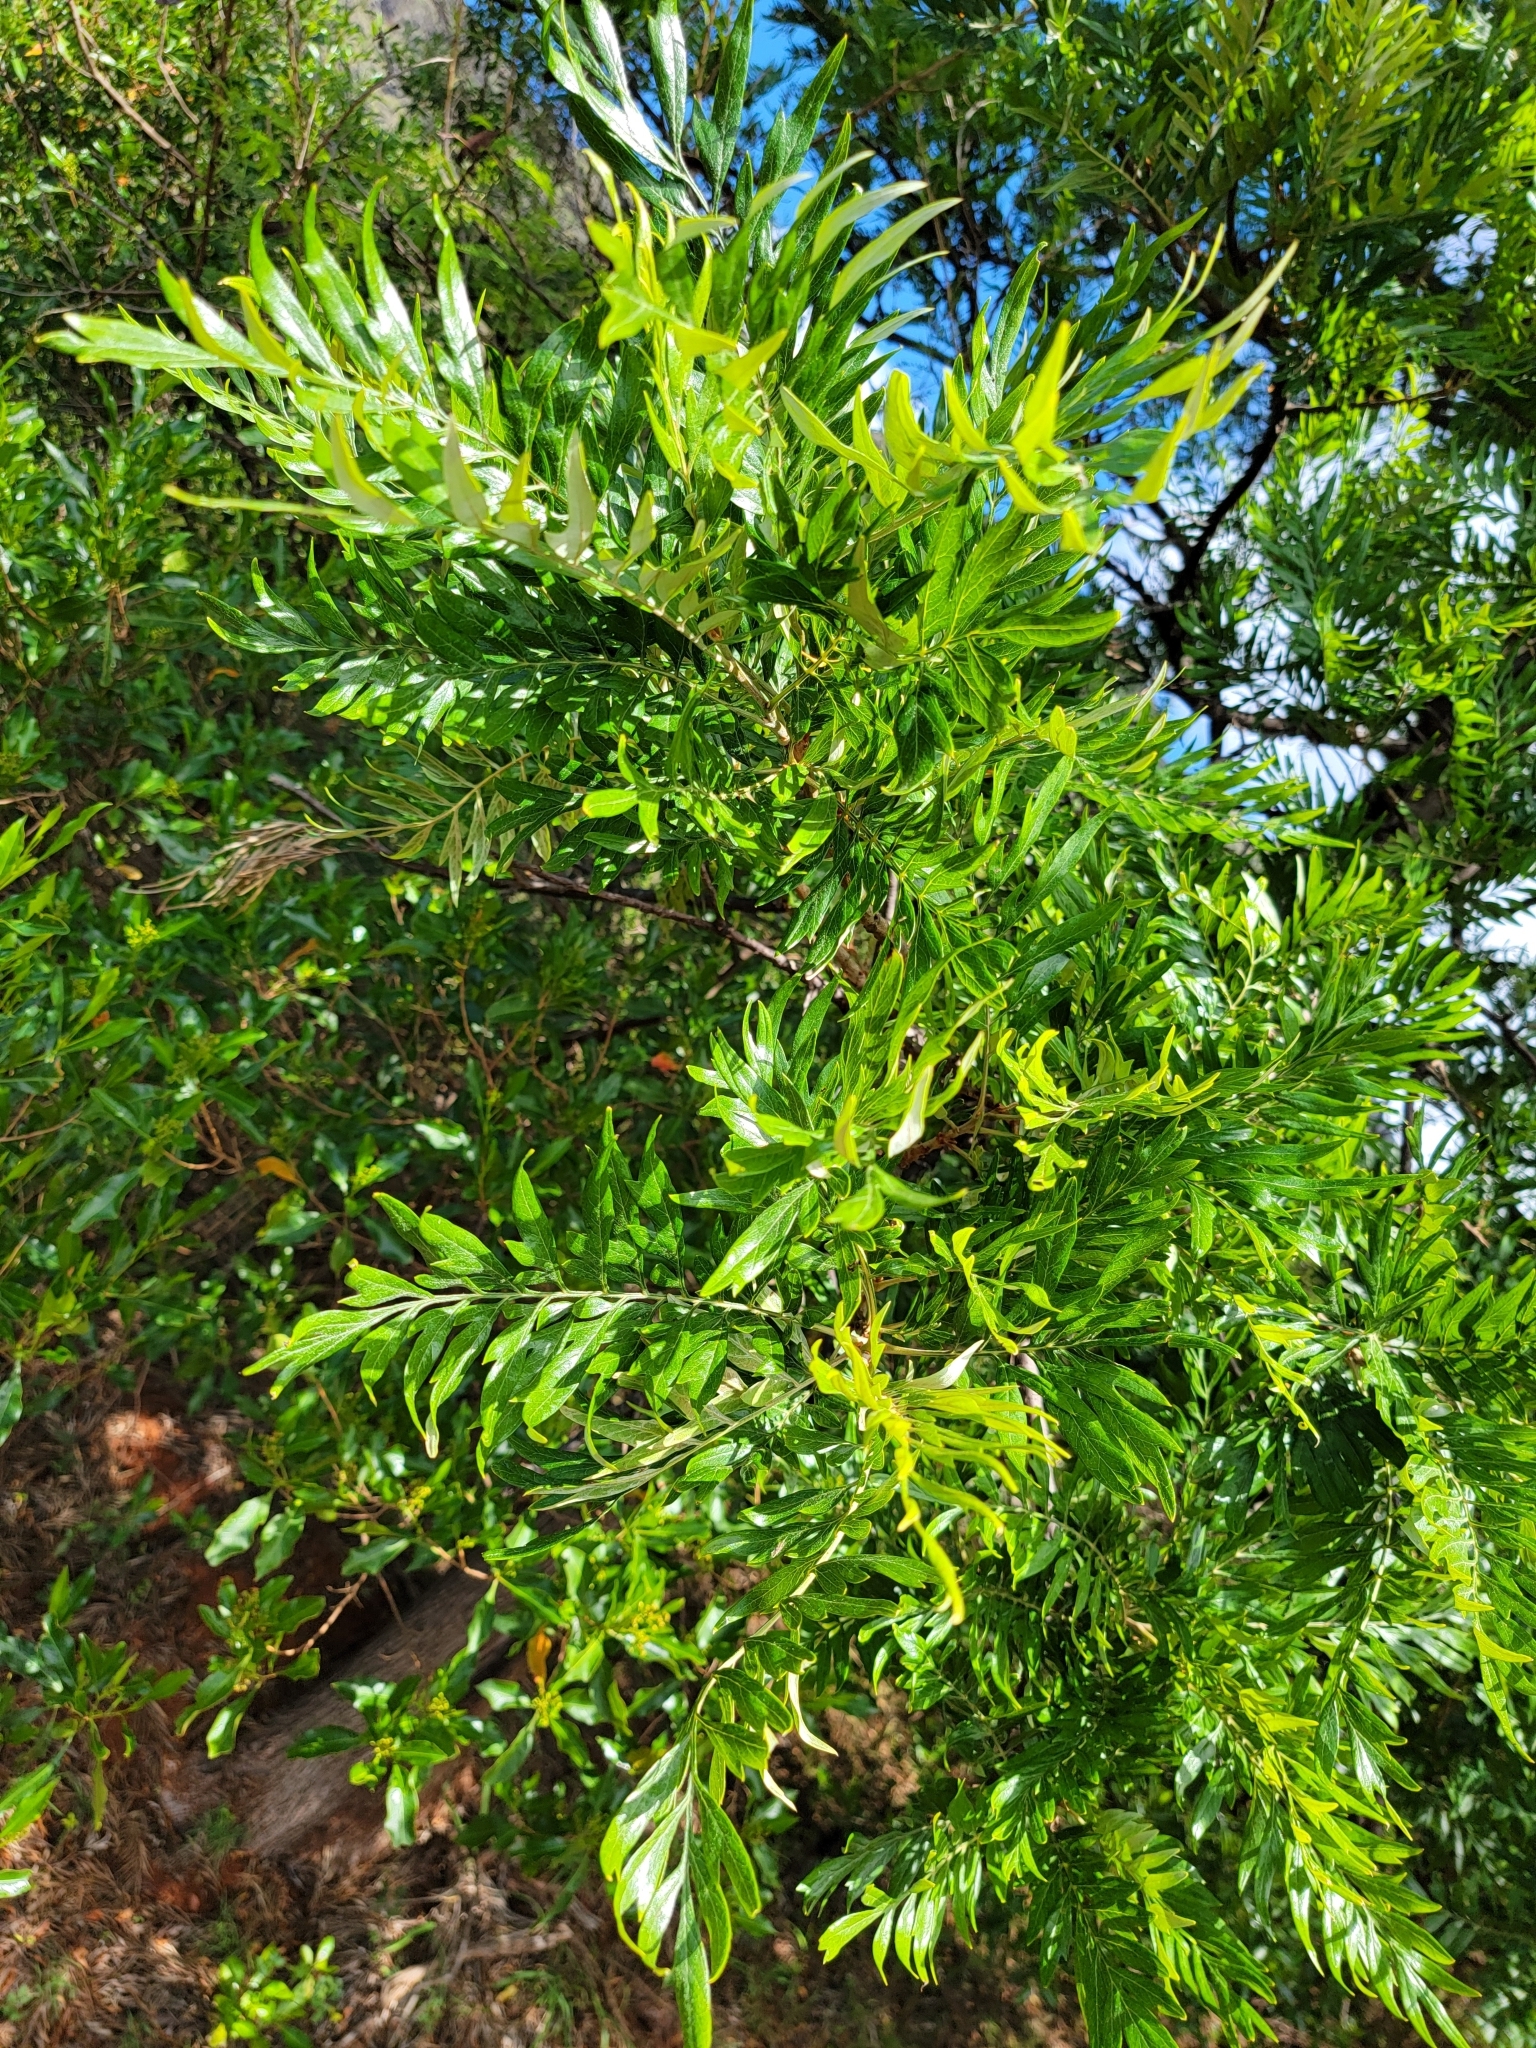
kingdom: Plantae
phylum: Tracheophyta
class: Magnoliopsida
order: Proteales
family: Proteaceae
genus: Grevillea
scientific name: Grevillea robusta
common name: Silkoak
